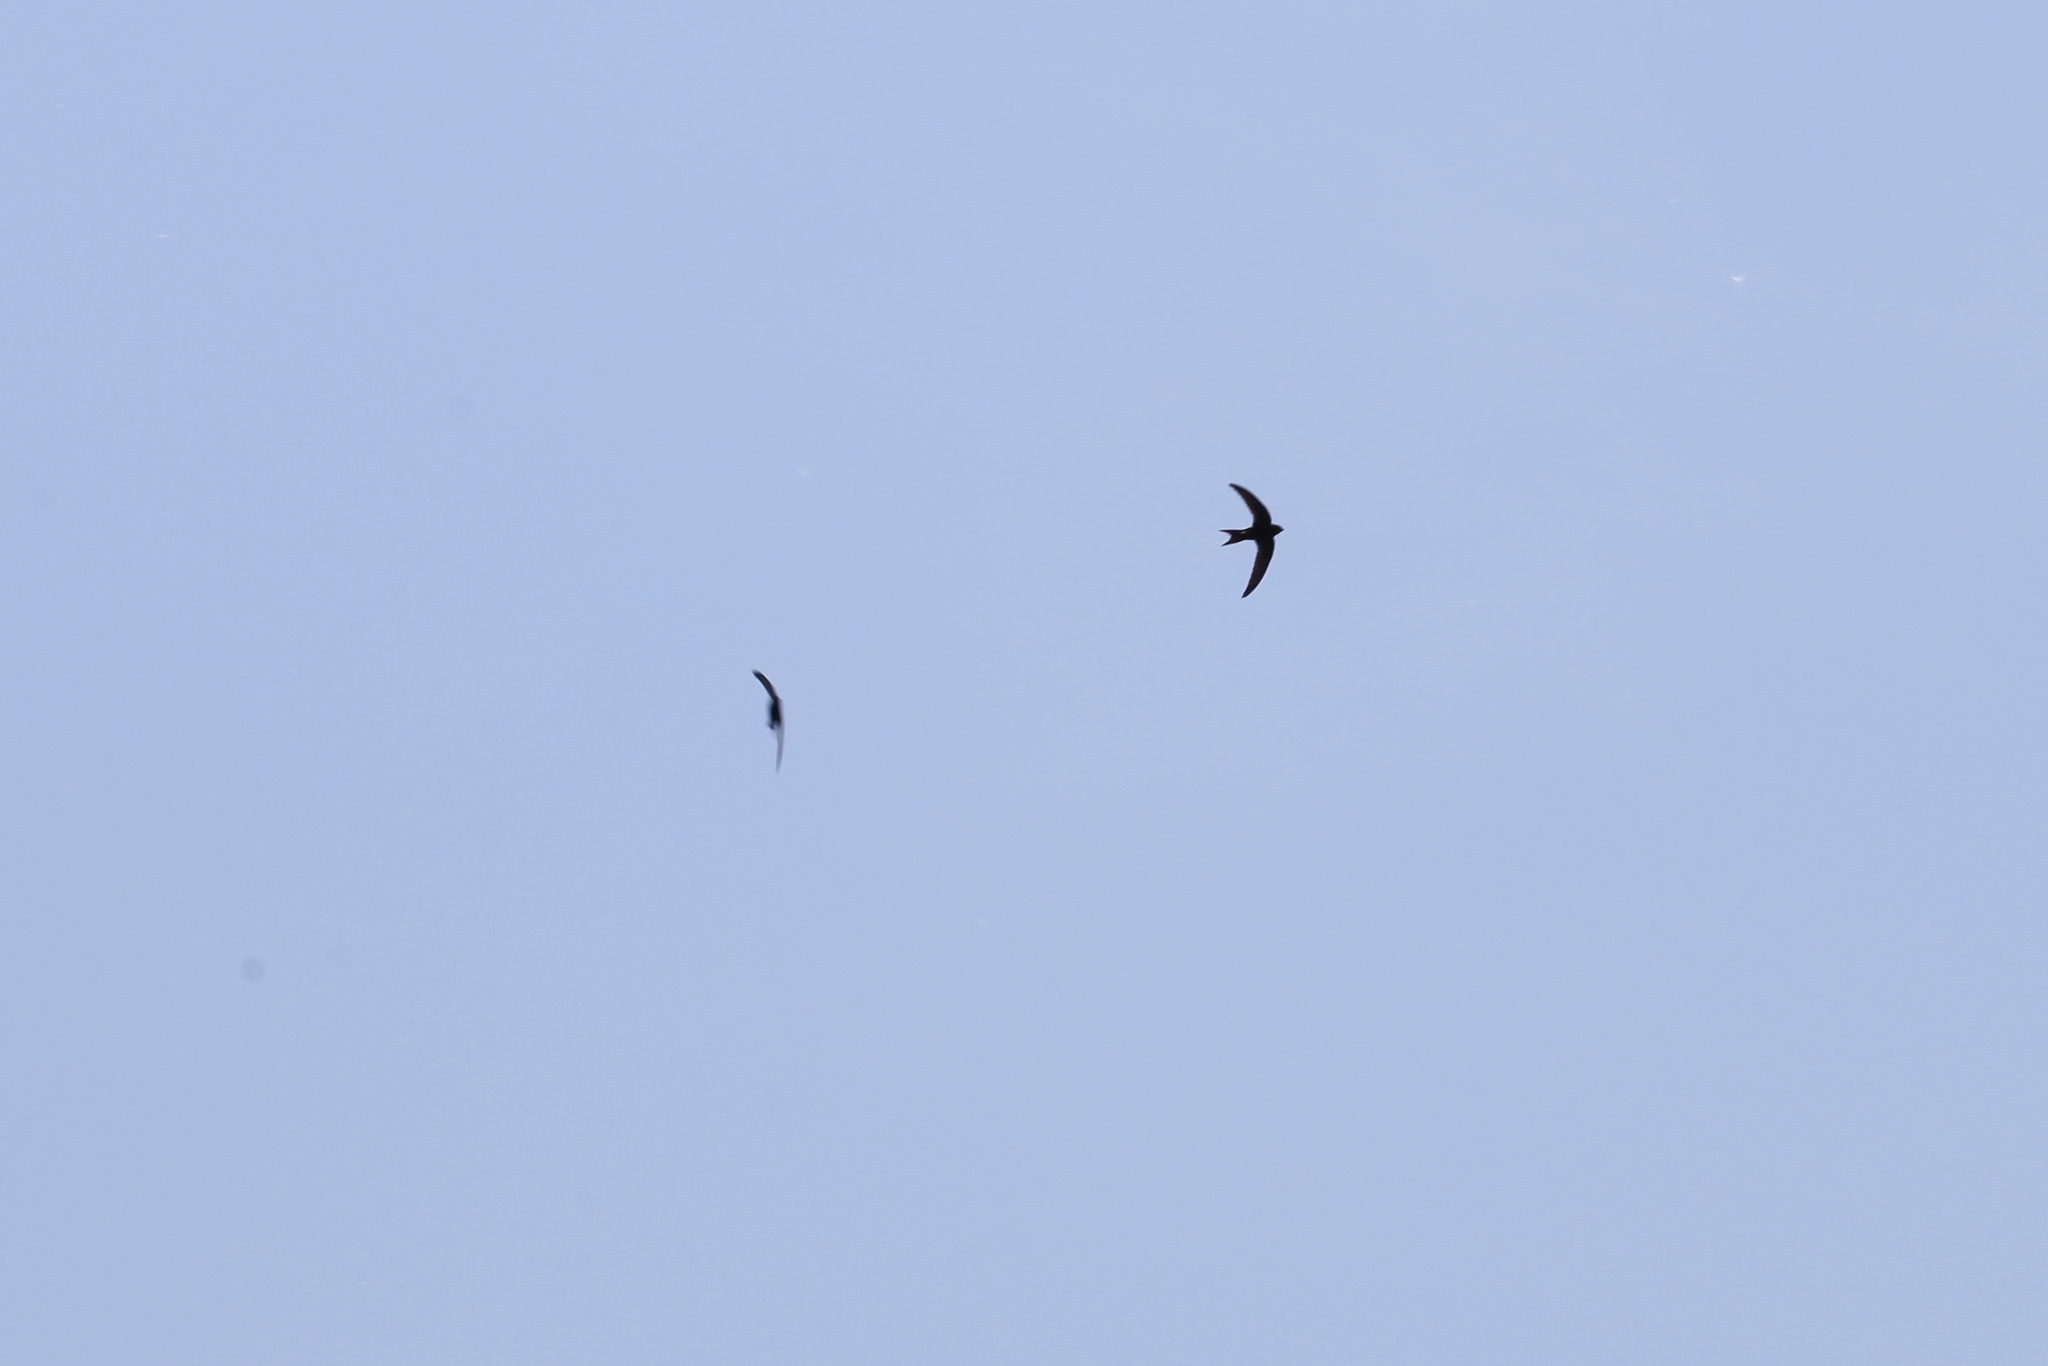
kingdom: Animalia
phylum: Chordata
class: Aves
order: Apodiformes
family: Apodidae
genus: Apus
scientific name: Apus apus
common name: Common swift
